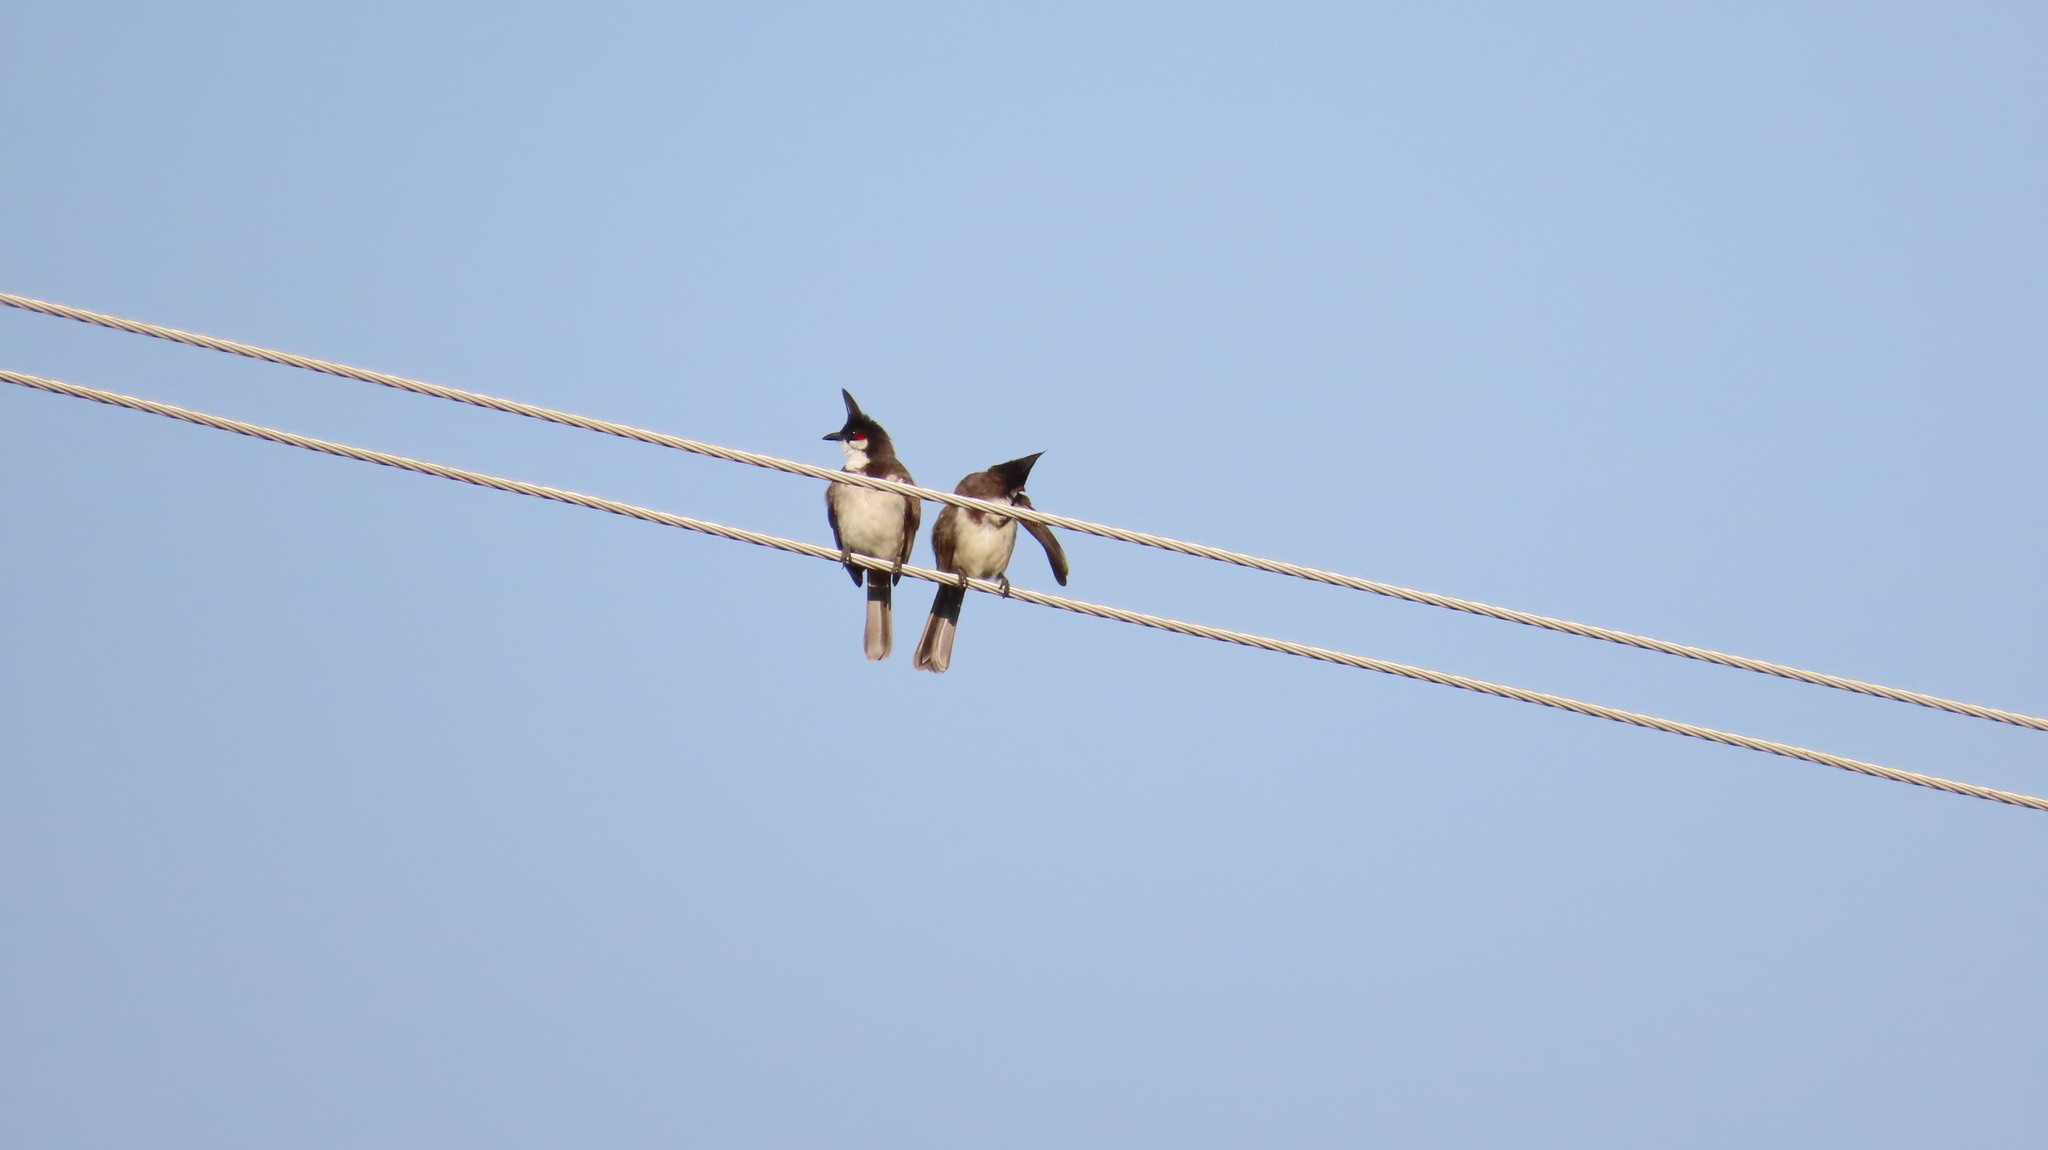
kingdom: Animalia
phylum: Chordata
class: Aves
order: Passeriformes
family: Pycnonotidae
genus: Pycnonotus
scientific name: Pycnonotus jocosus
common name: Red-whiskered bulbul
